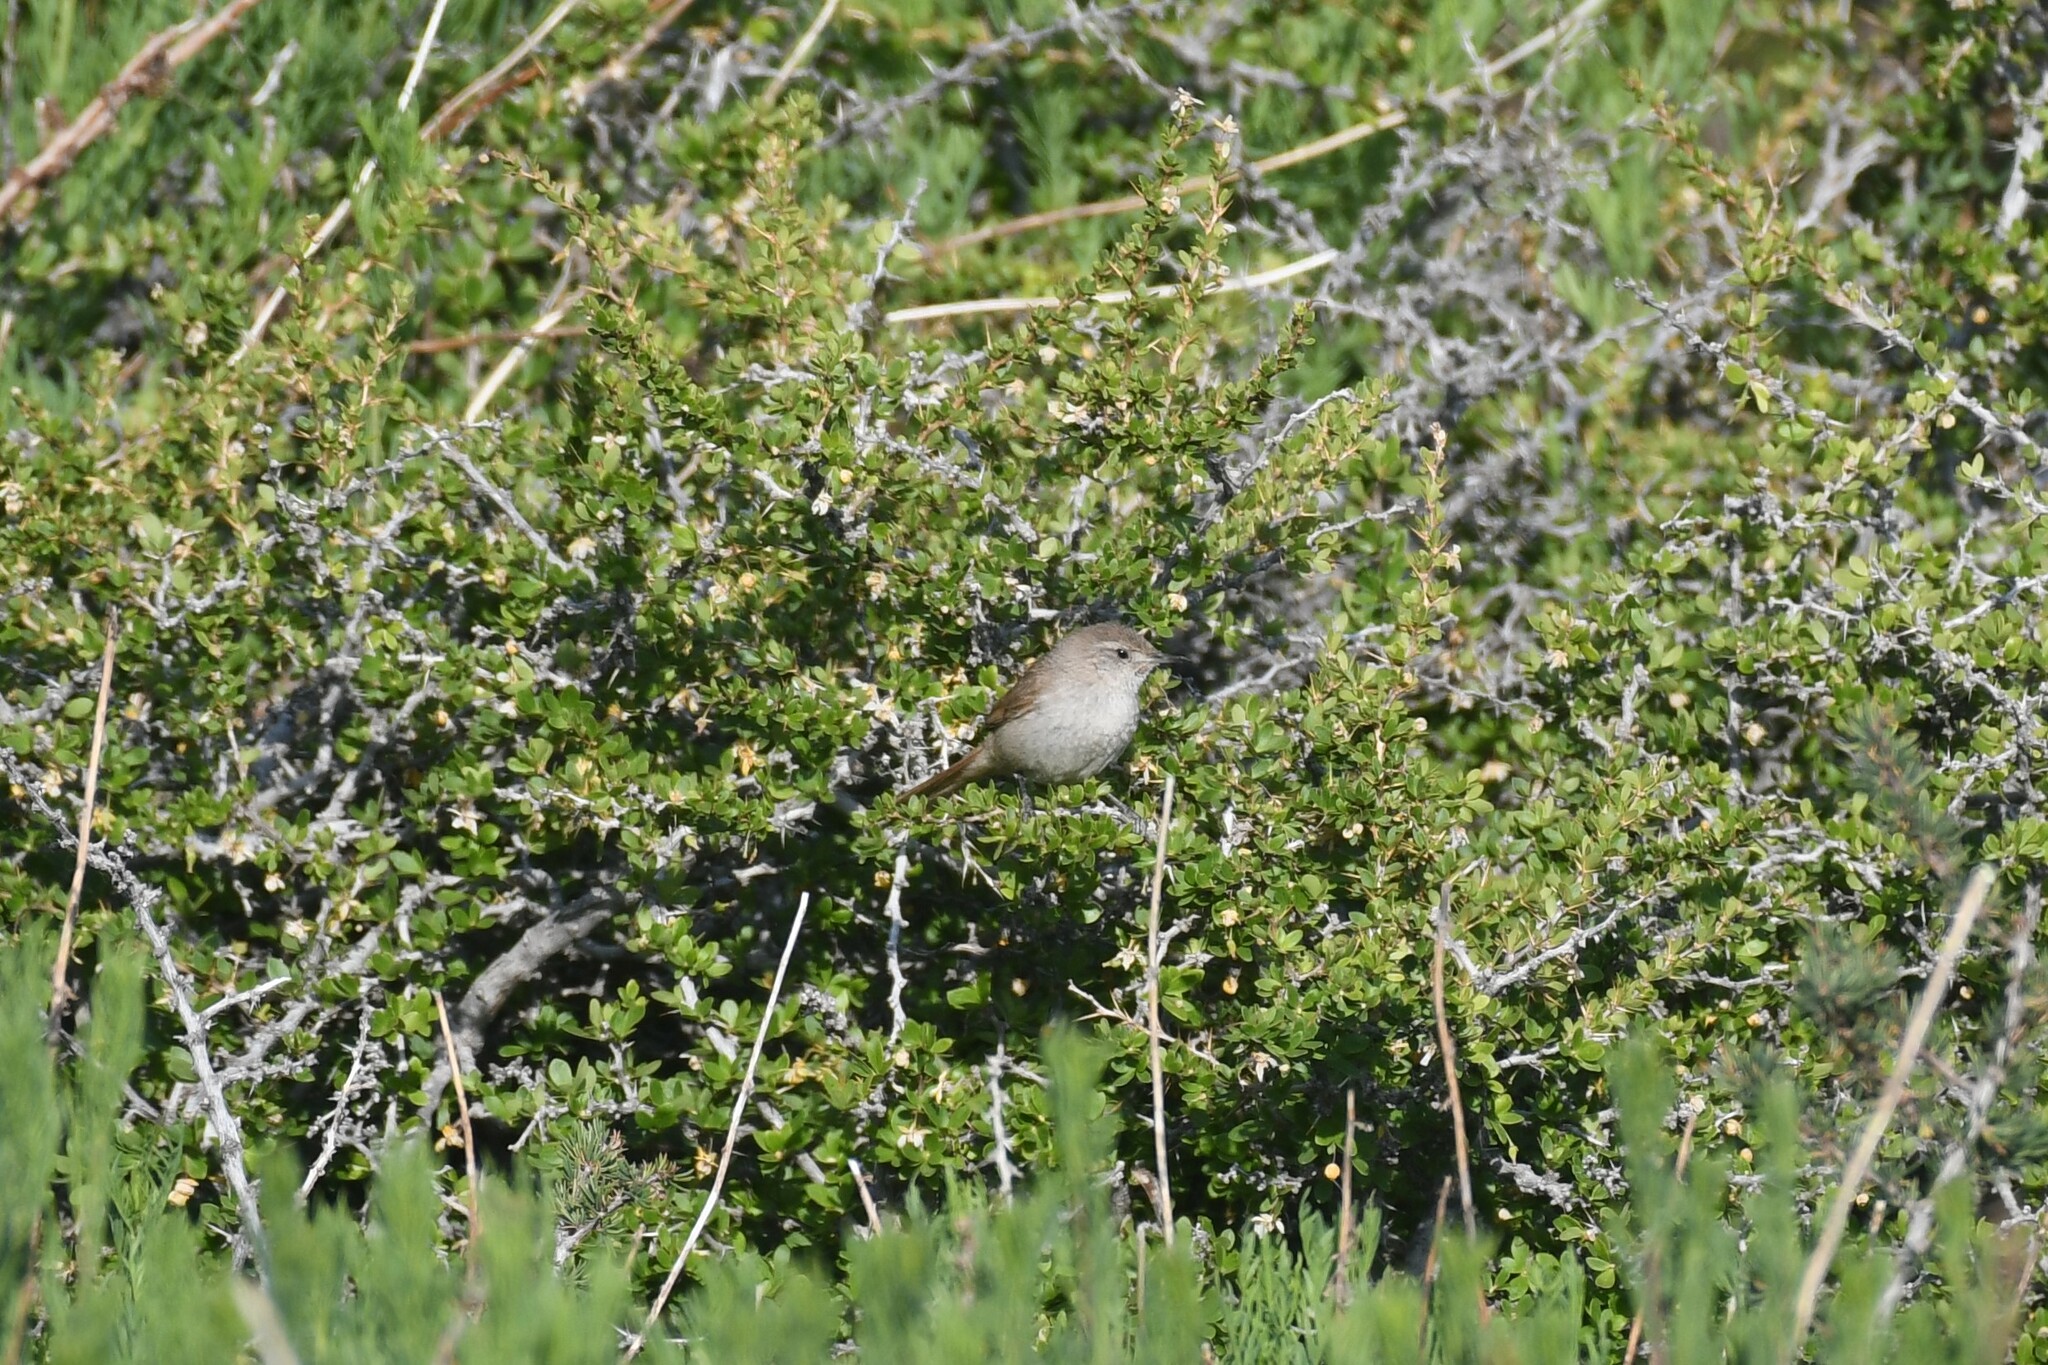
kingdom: Animalia
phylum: Chordata
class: Aves
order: Passeriformes
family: Furnariidae
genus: Asthenes
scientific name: Asthenes pyrrholeuca
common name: Sharp-billed canastero
